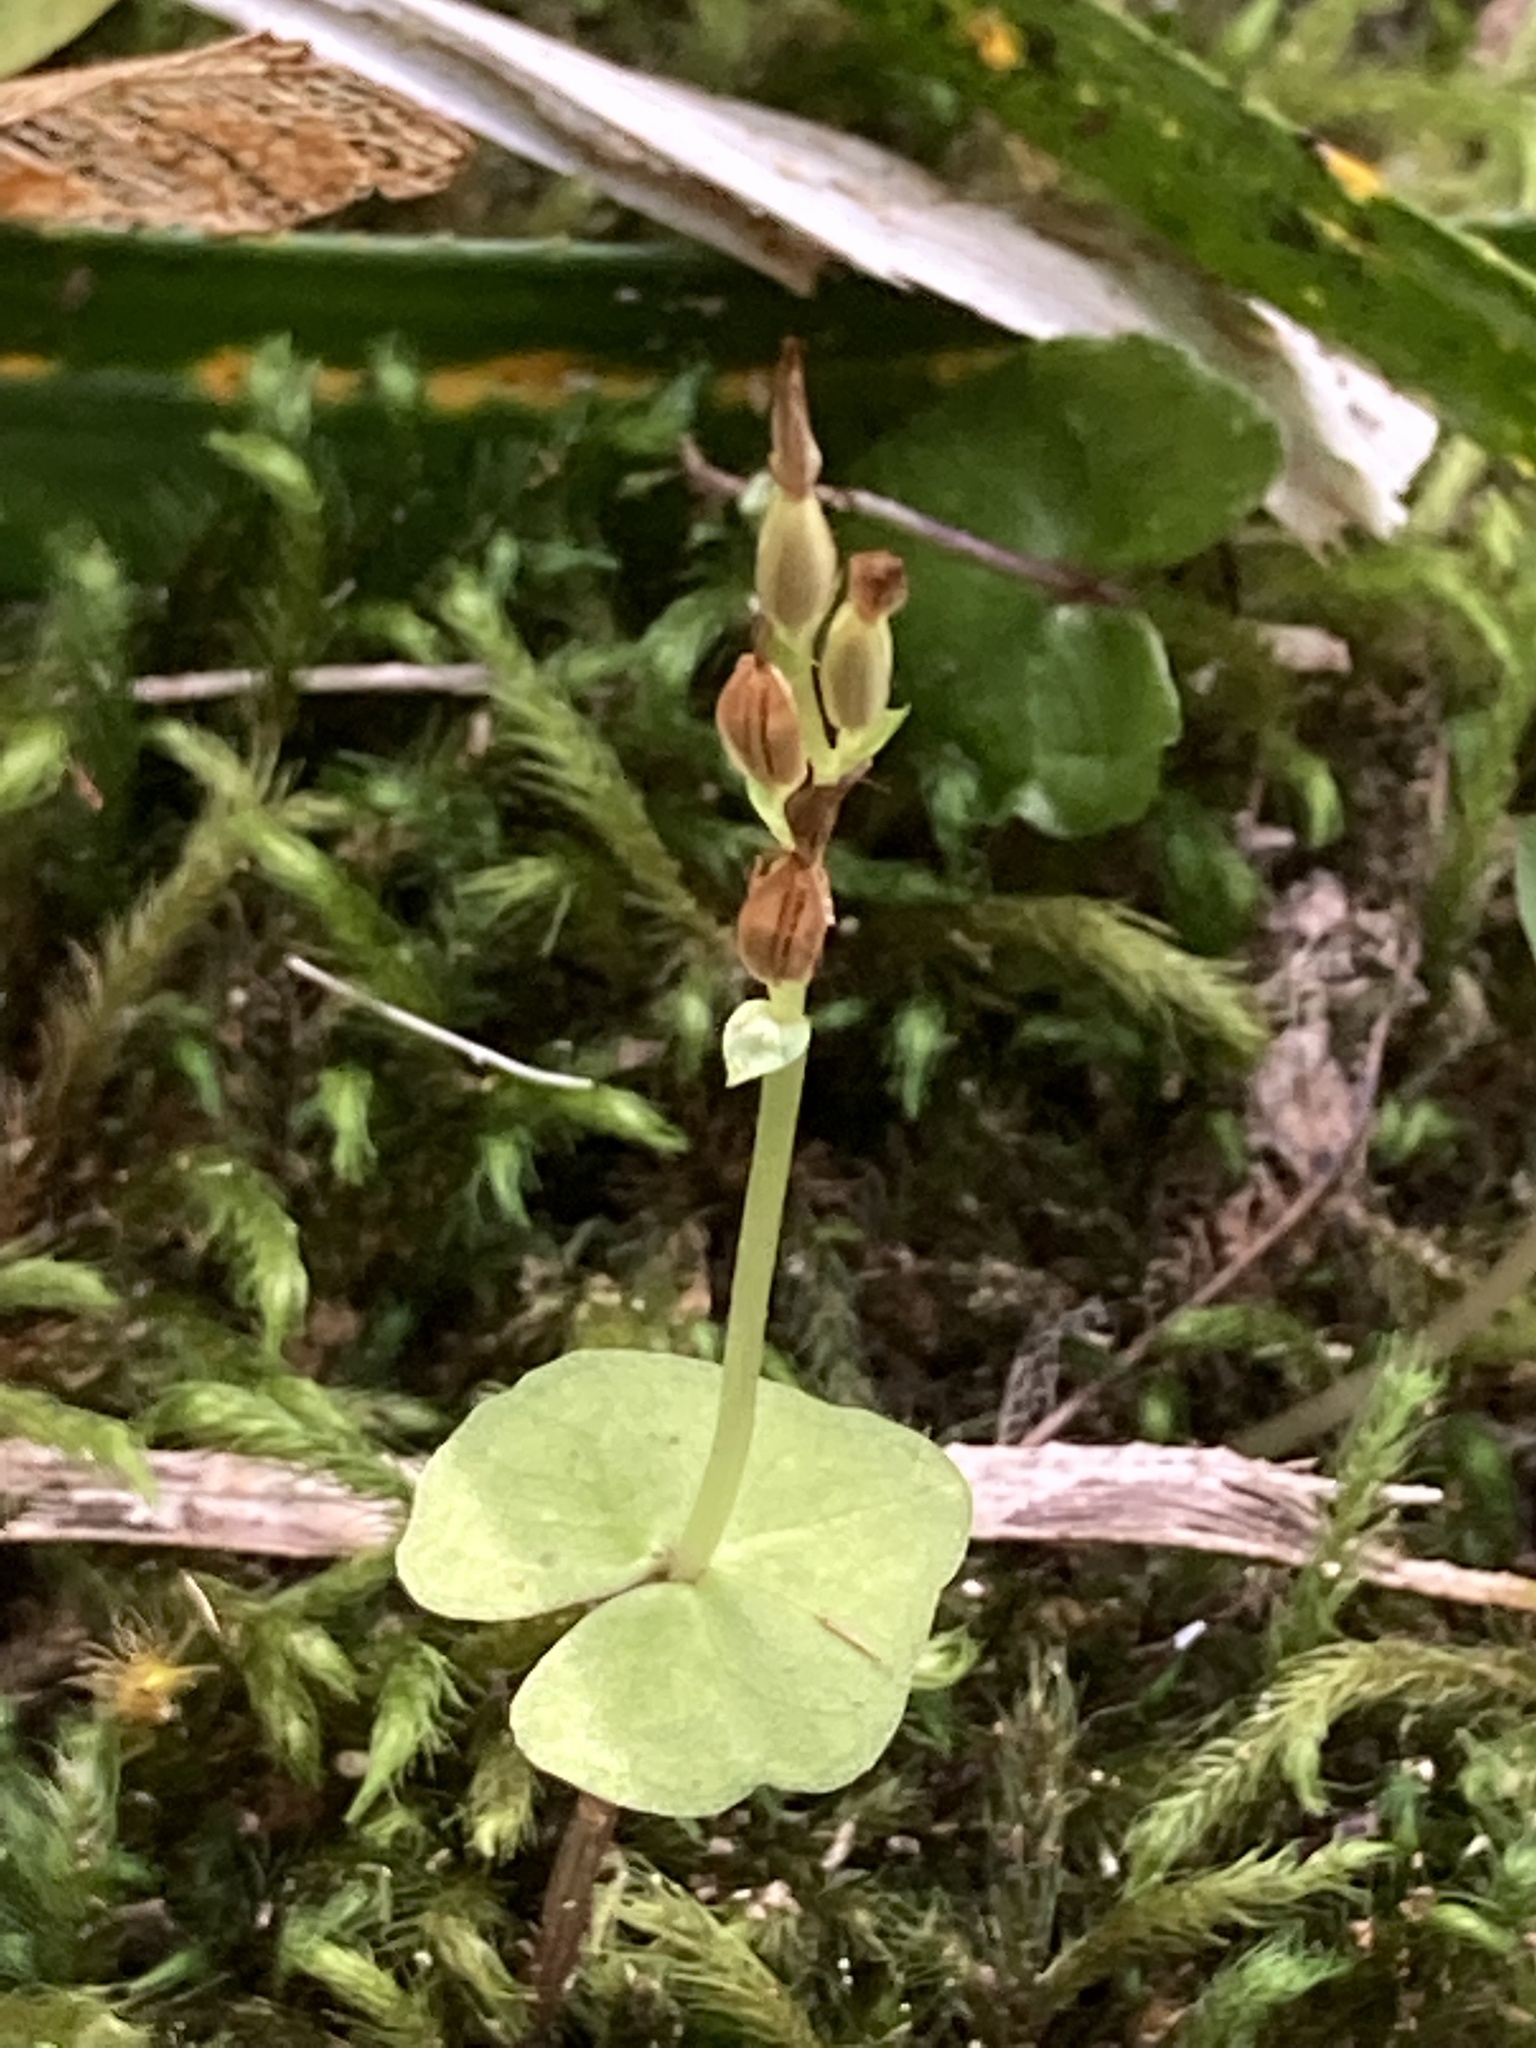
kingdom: Plantae
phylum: Tracheophyta
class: Liliopsida
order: Asparagales
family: Orchidaceae
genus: Acianthus
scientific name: Acianthus sinclairii
